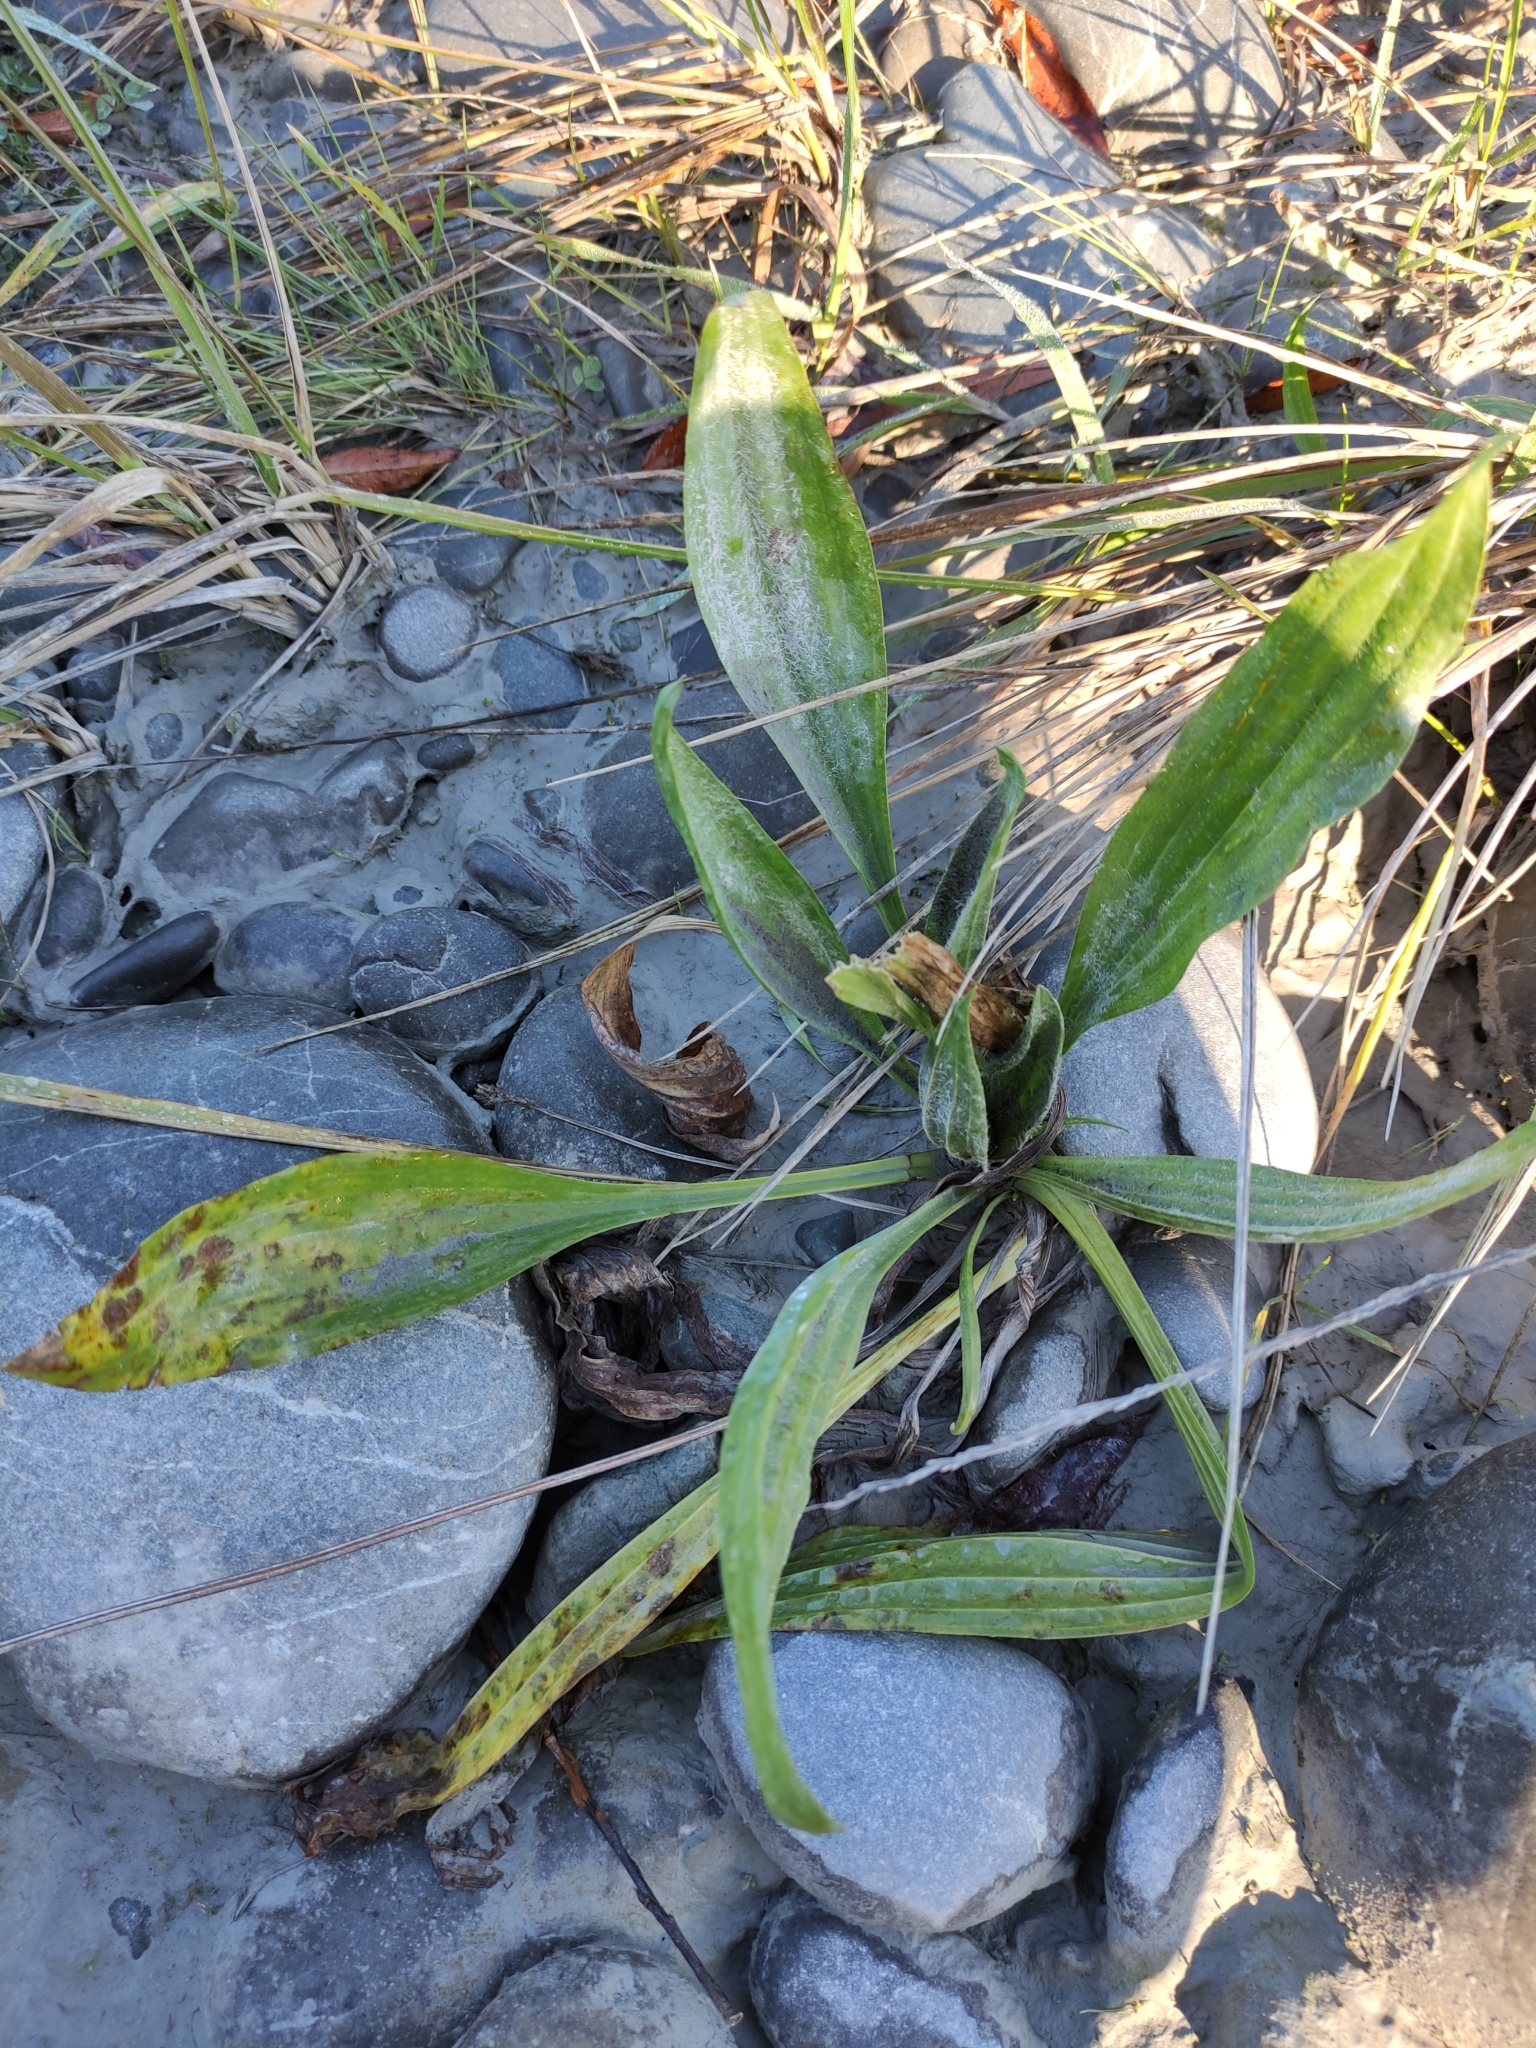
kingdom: Plantae
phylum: Tracheophyta
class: Magnoliopsida
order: Lamiales
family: Plantaginaceae
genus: Plantago
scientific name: Plantago lanceolata
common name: Ribwort plantain
